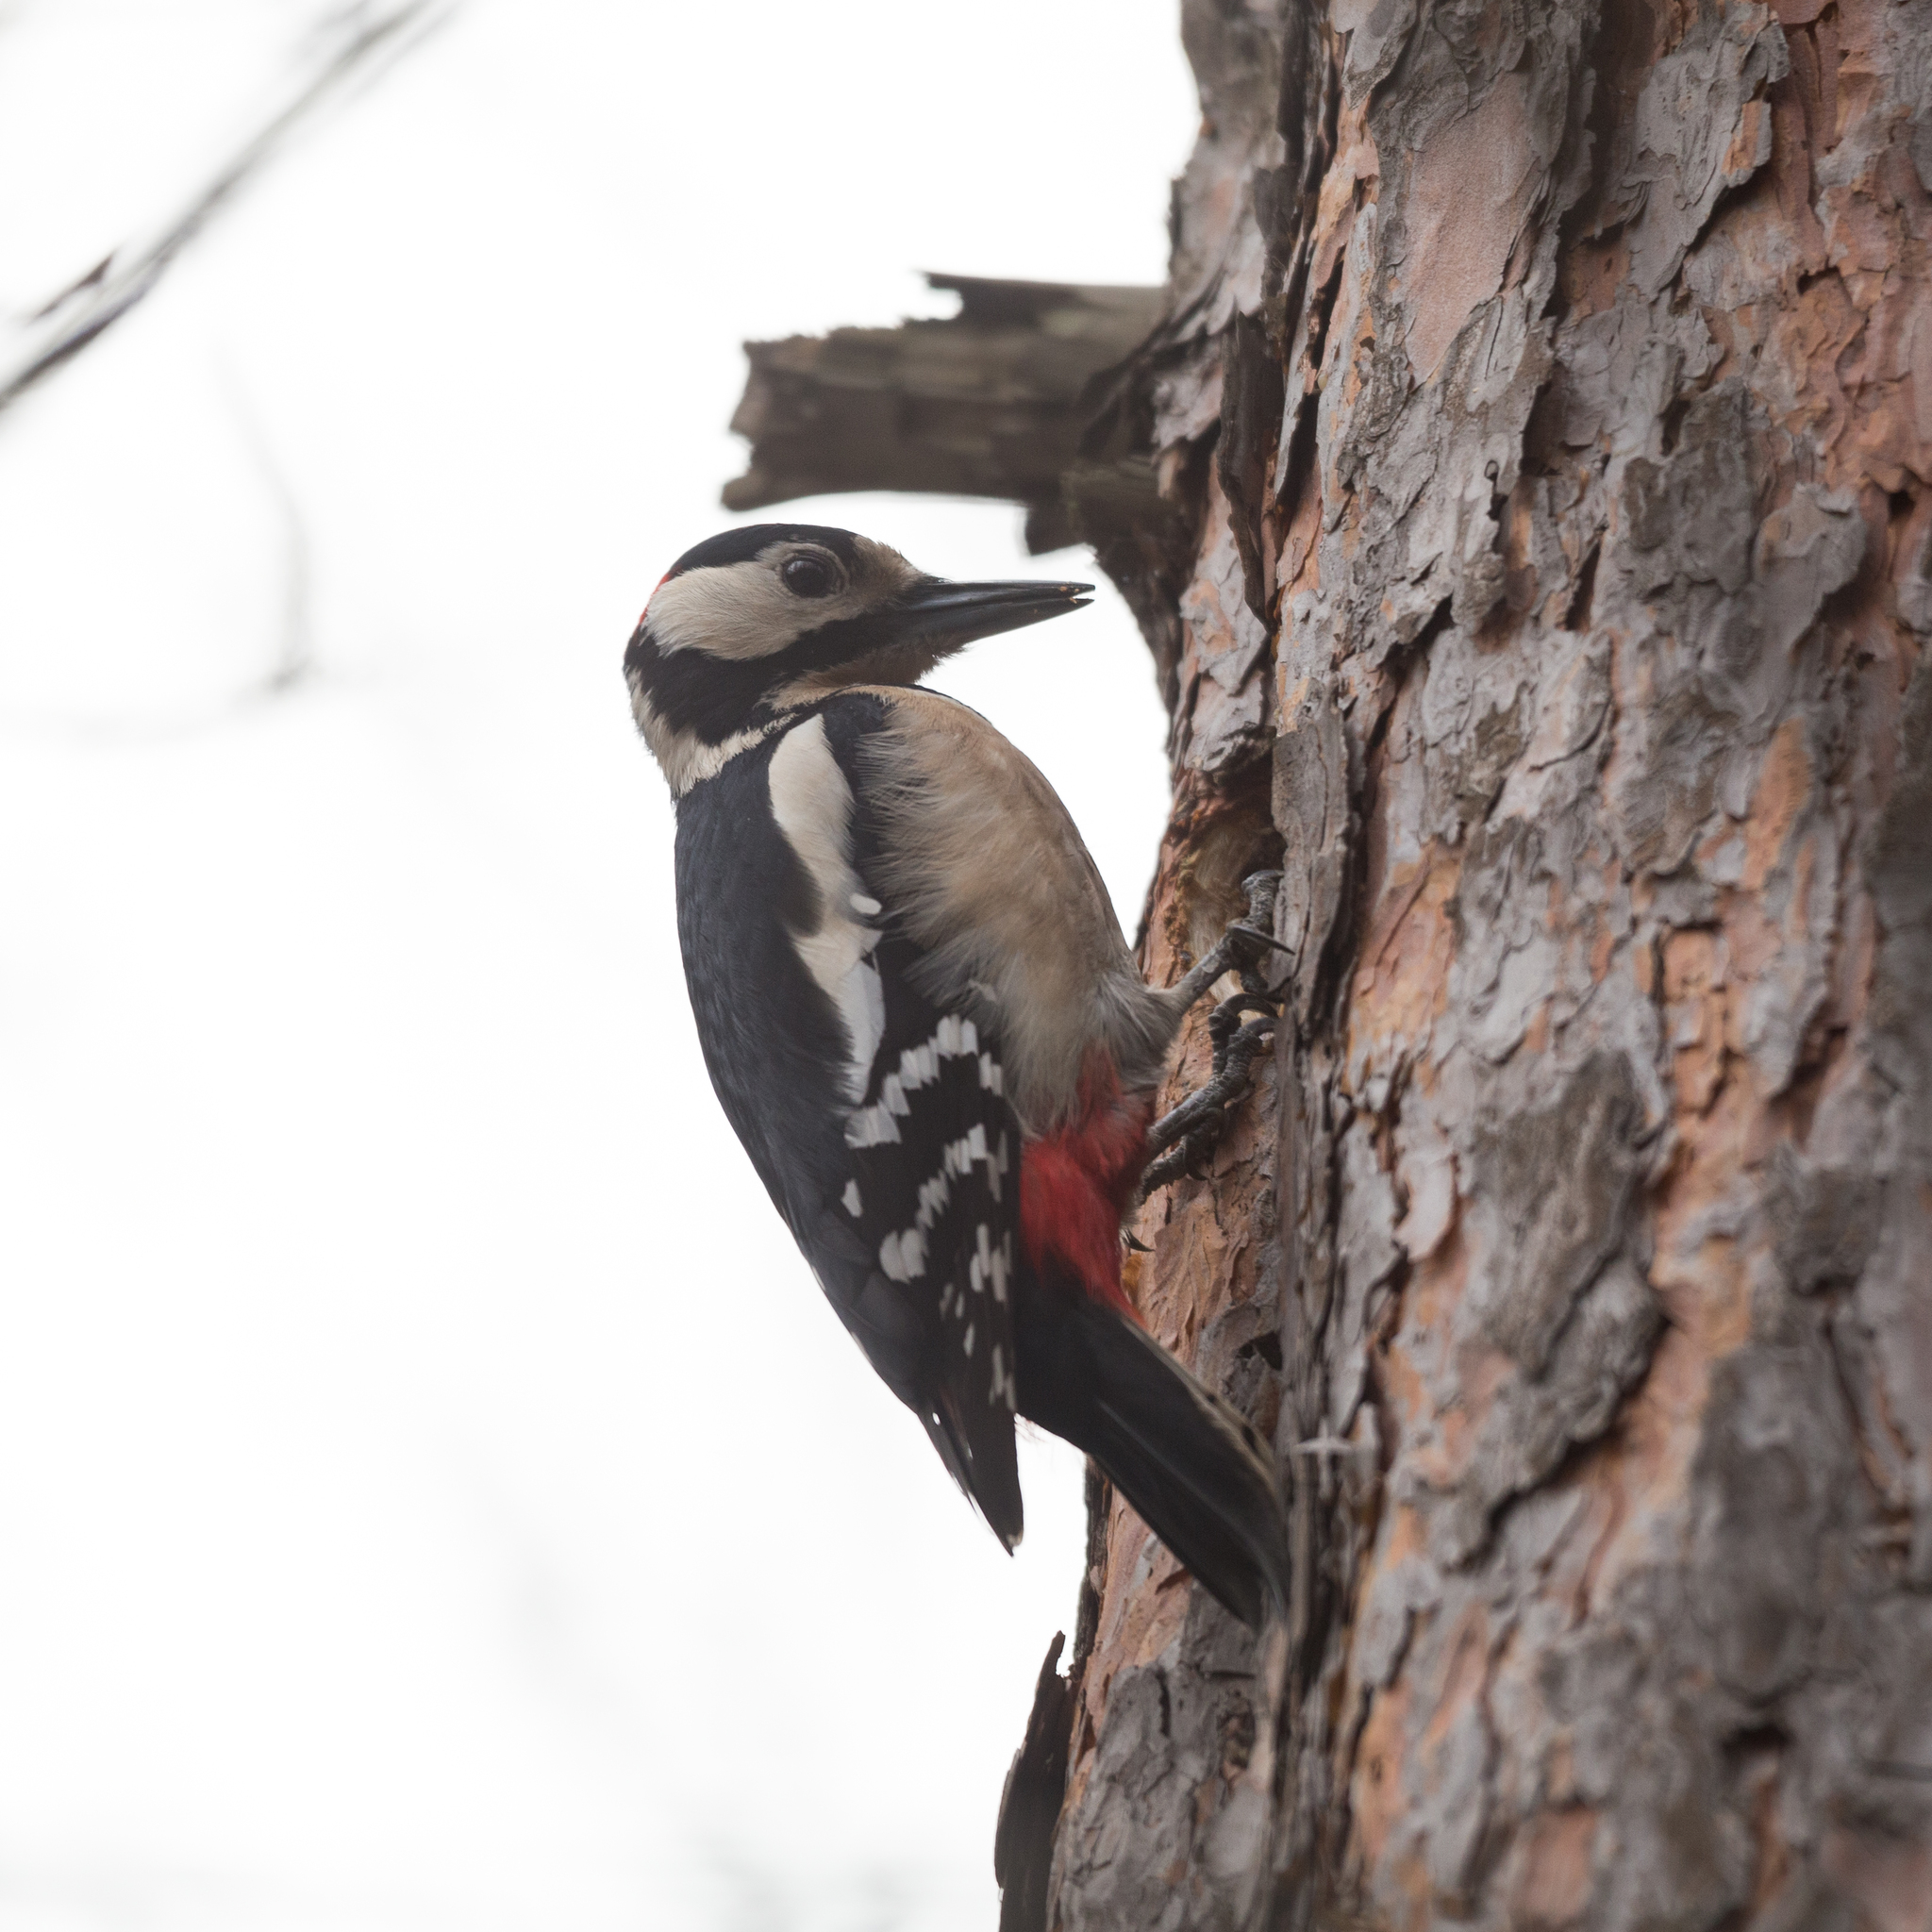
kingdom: Animalia
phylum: Chordata
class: Aves
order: Piciformes
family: Picidae
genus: Dendrocopos
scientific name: Dendrocopos major
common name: Great spotted woodpecker
